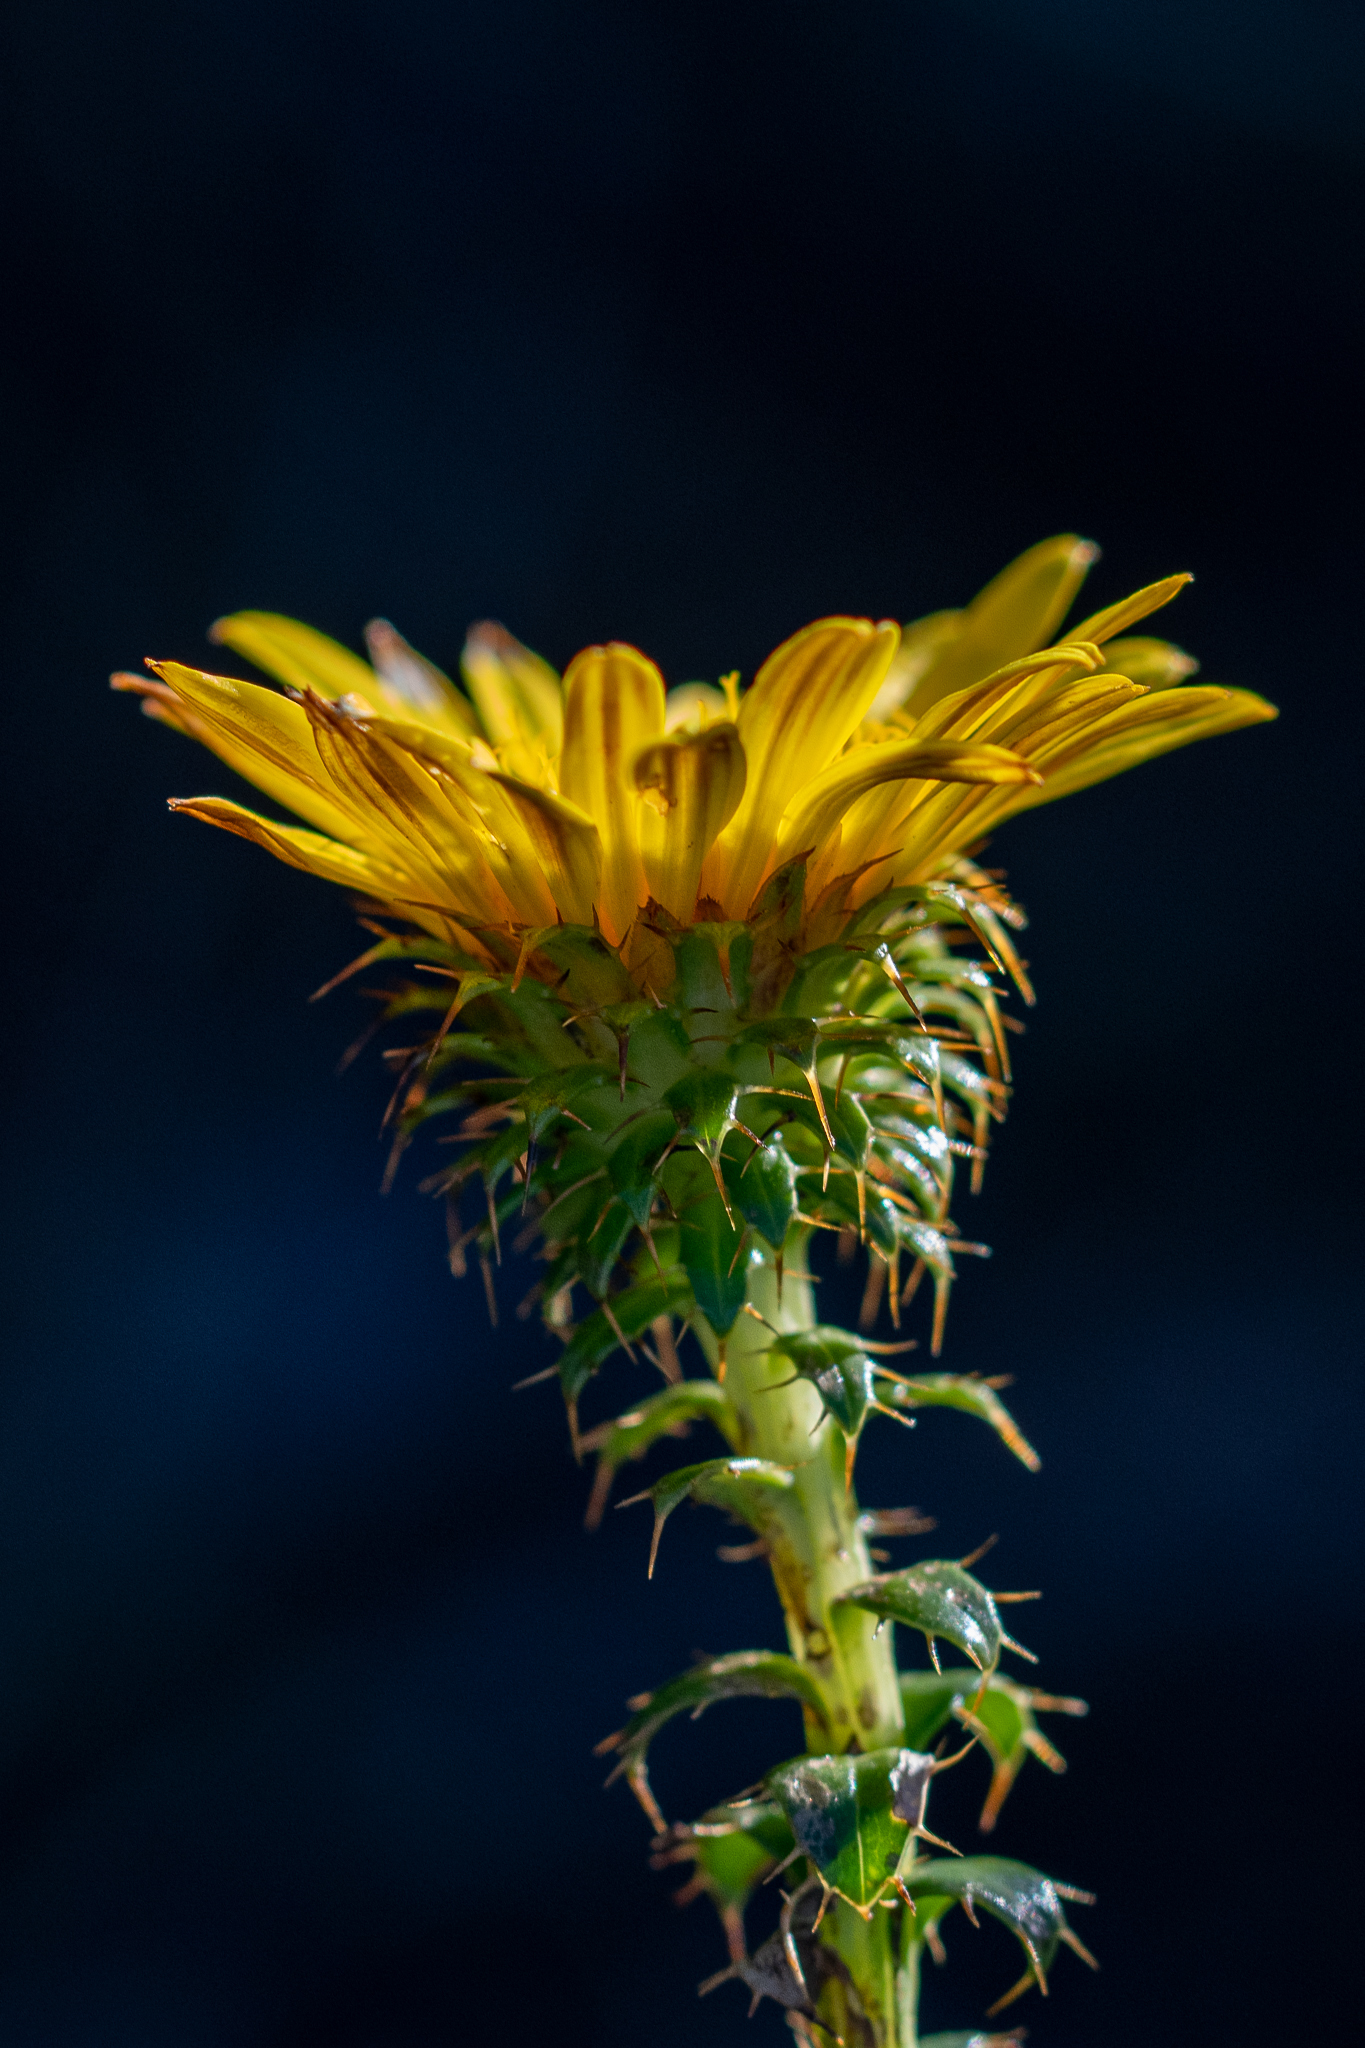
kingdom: Plantae
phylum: Tracheophyta
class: Magnoliopsida
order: Asterales
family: Asteraceae
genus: Cullumia
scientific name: Cullumia setosa
